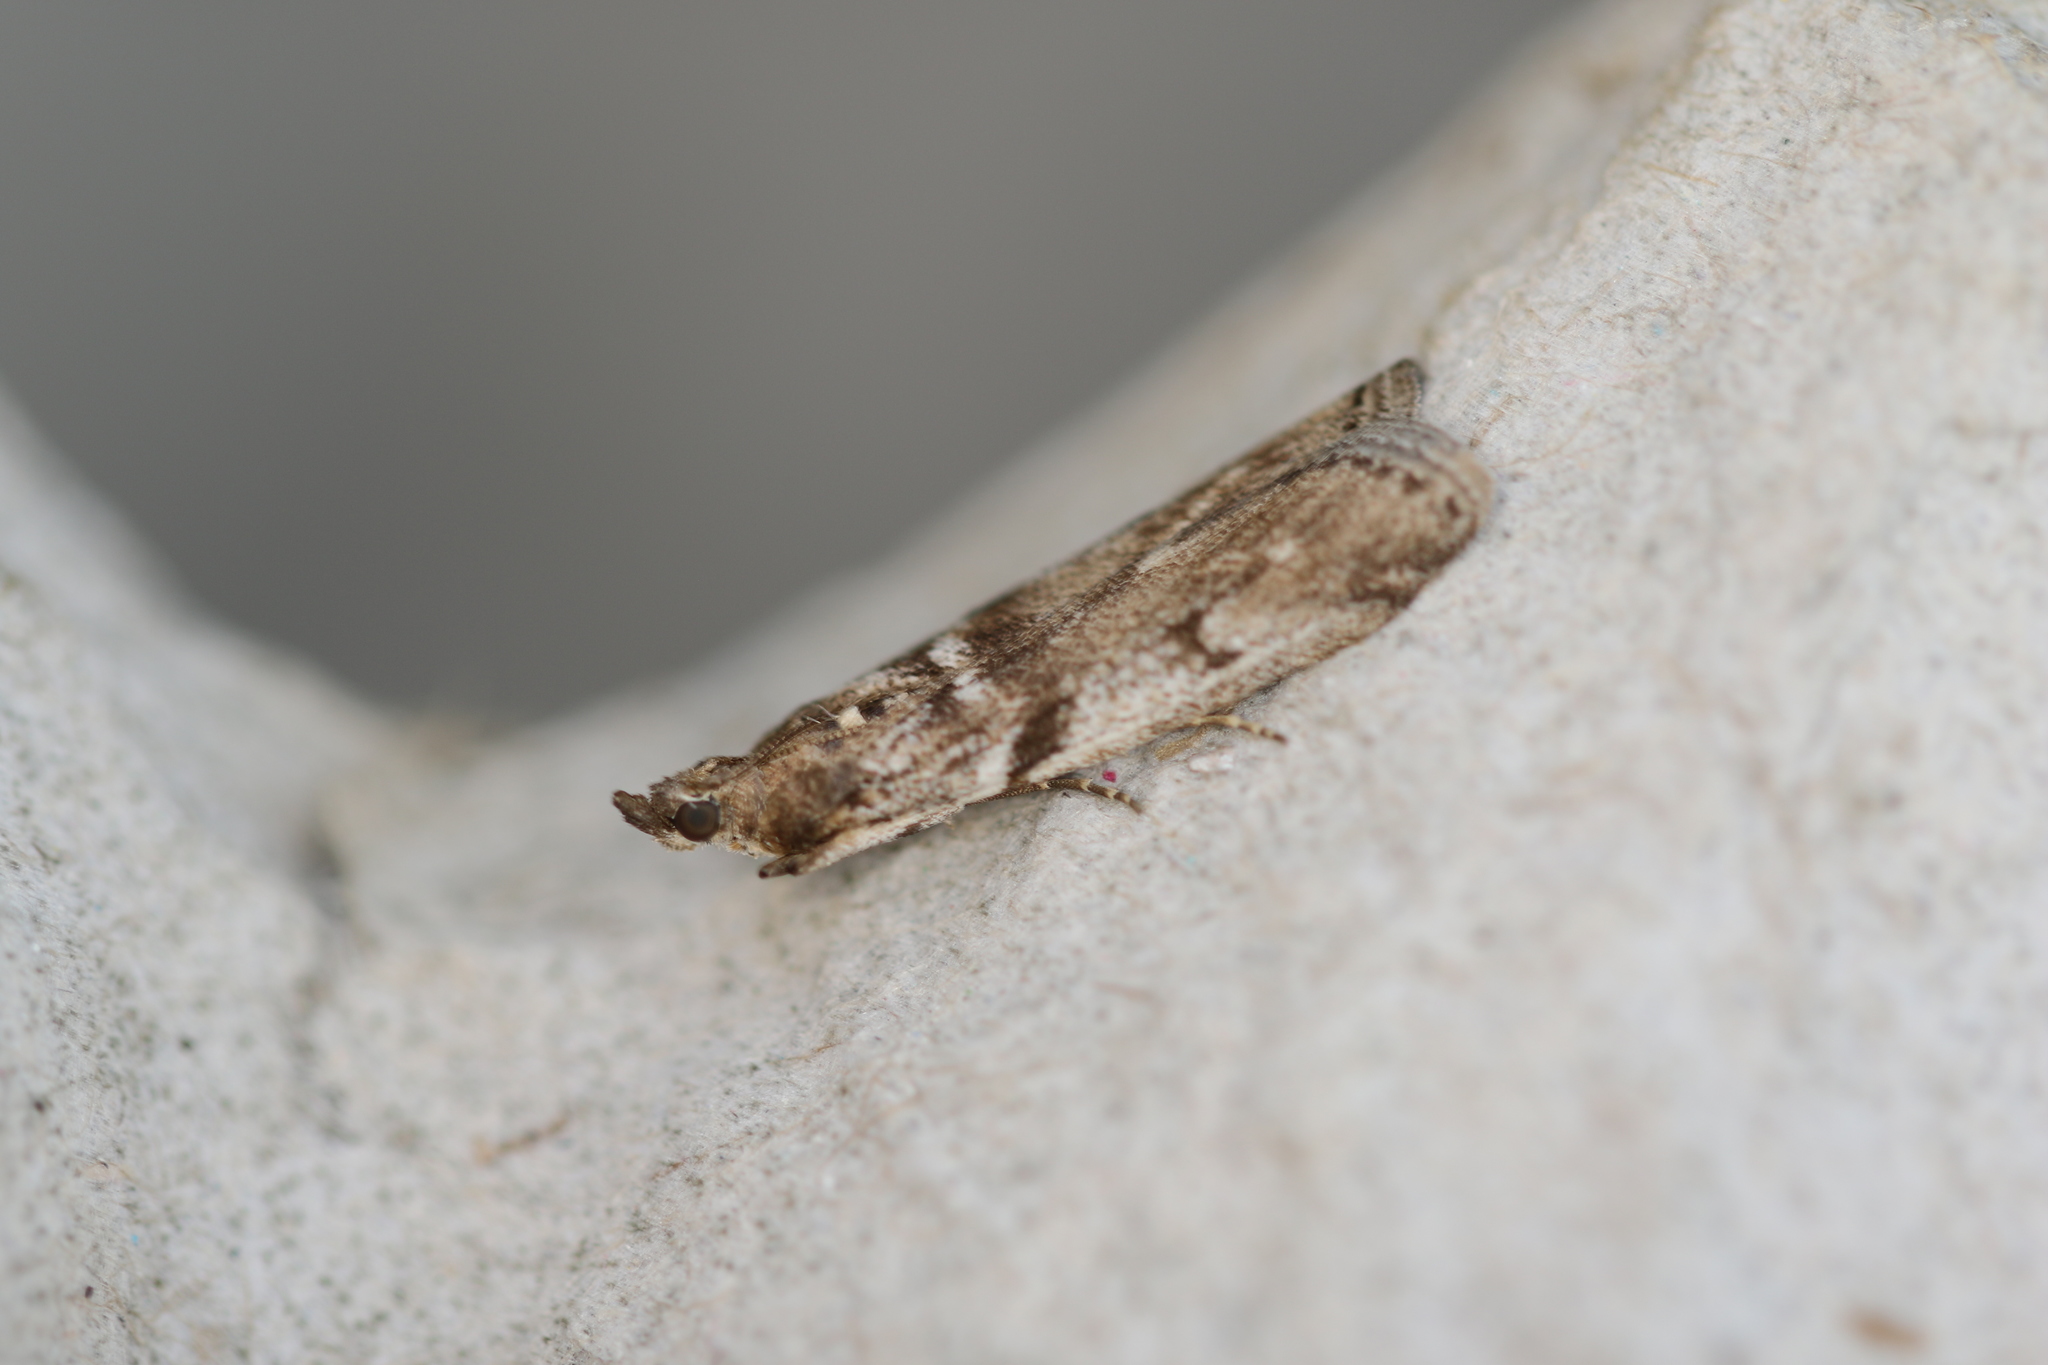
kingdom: Animalia
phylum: Arthropoda
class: Insecta
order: Lepidoptera
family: Pyralidae
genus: Zophodia
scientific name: Zophodia convolutella
